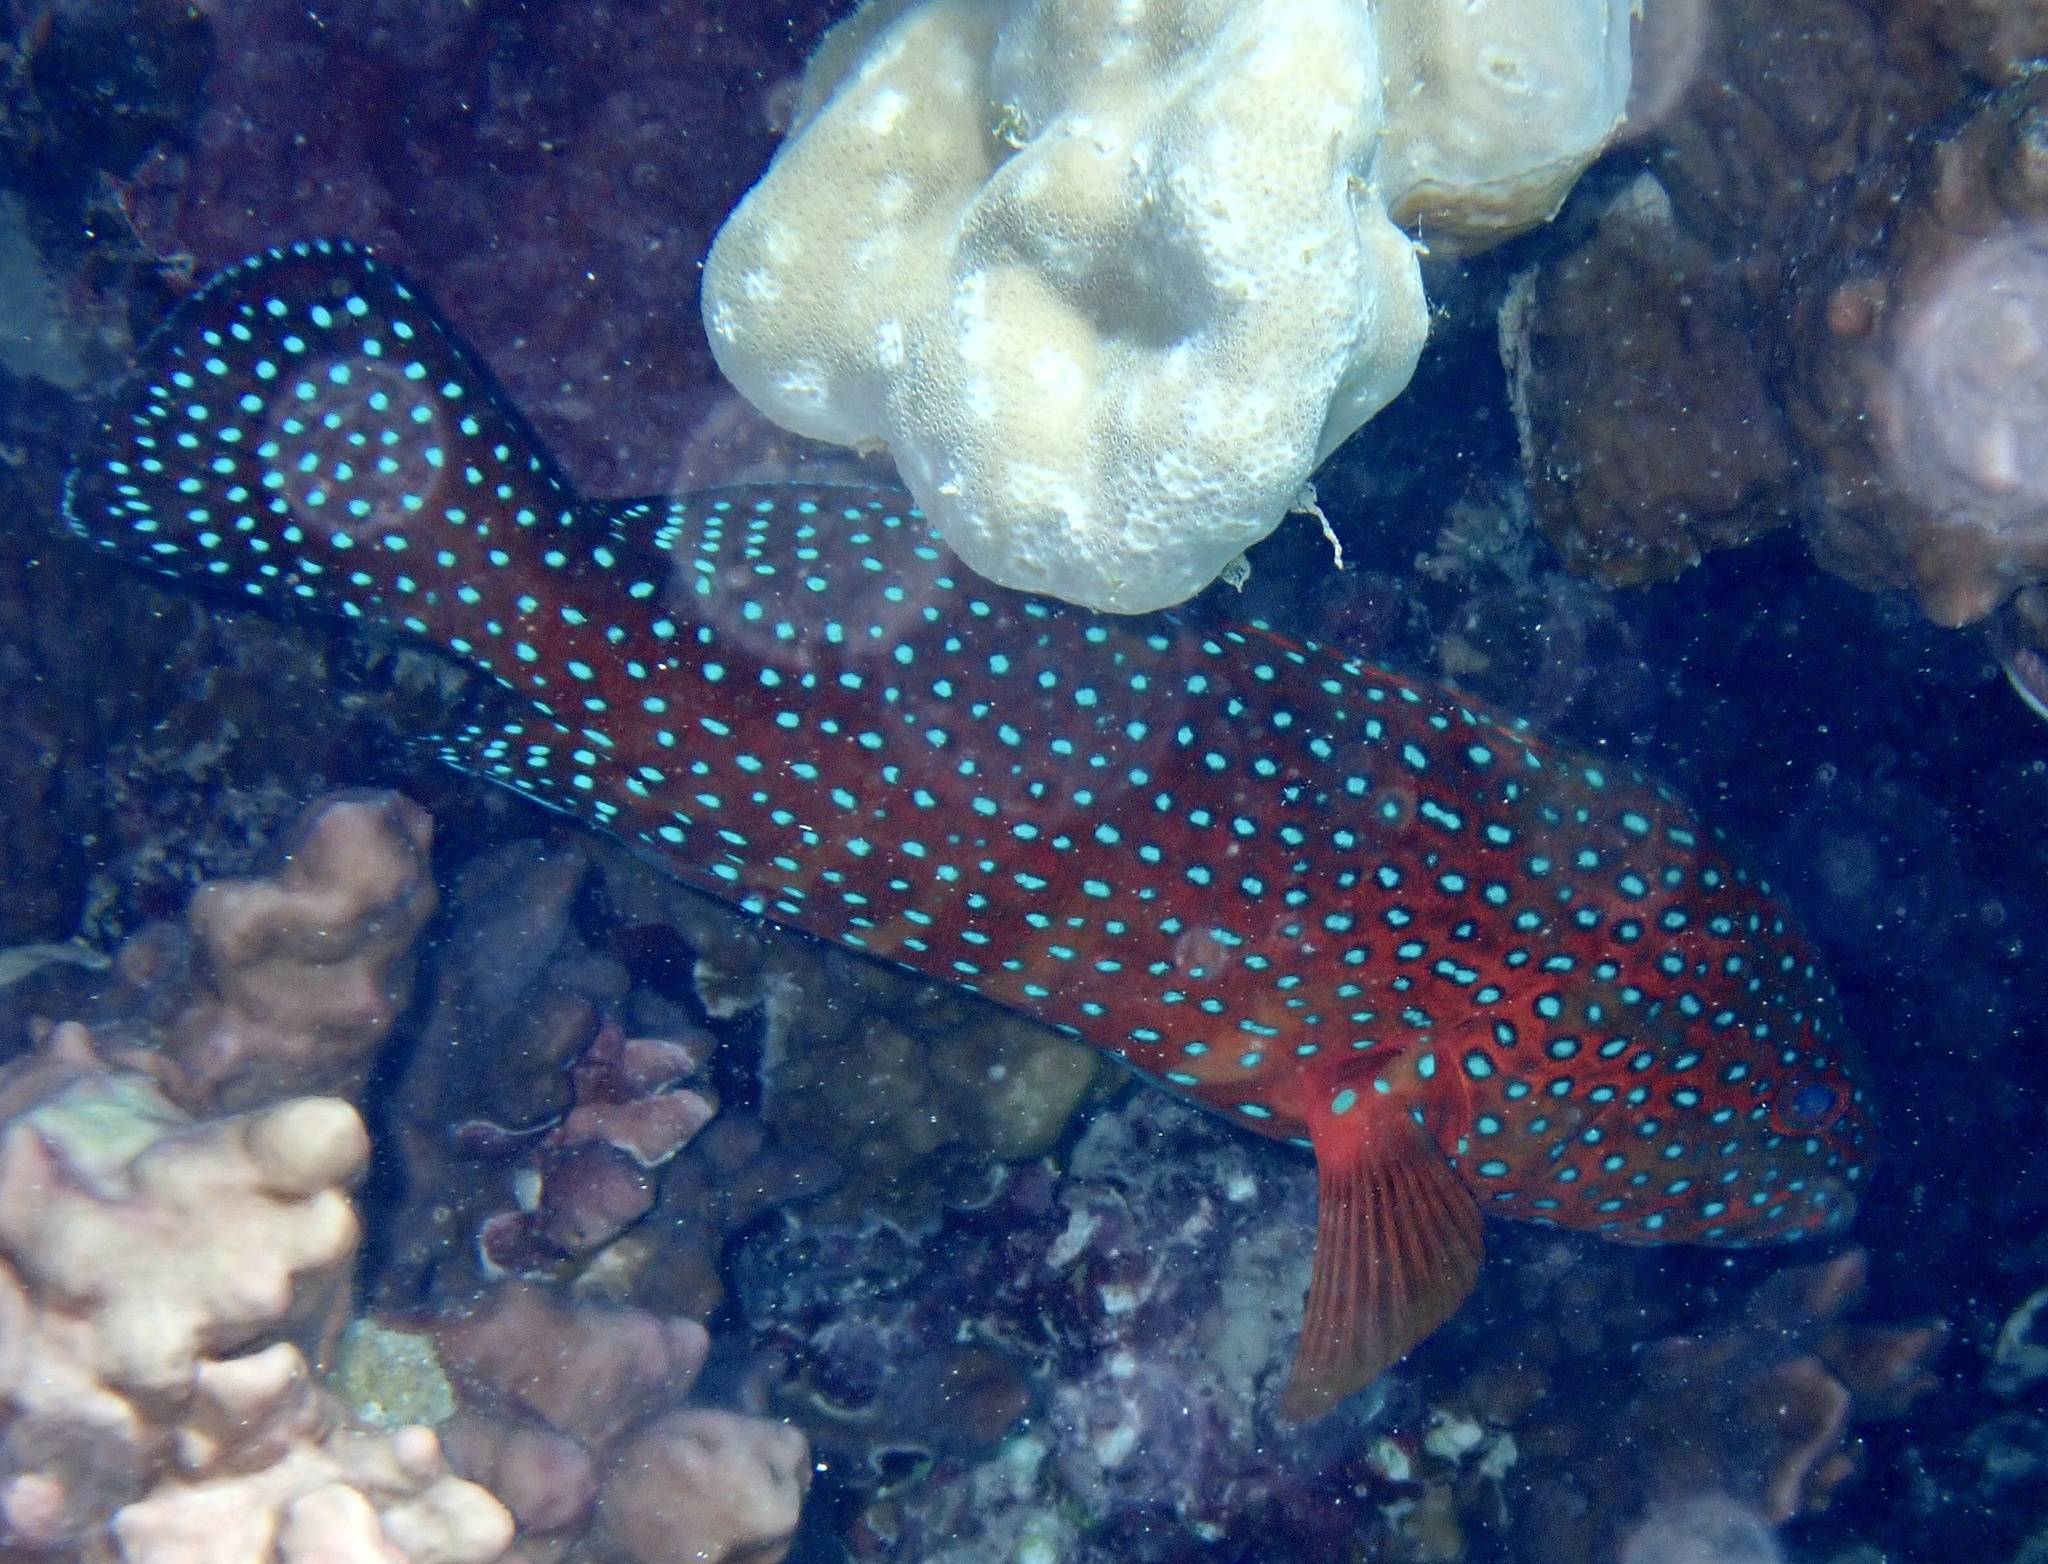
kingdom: Animalia
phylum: Chordata
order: Perciformes
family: Serranidae
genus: Cephalopholis
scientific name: Cephalopholis miniata
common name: Coral hind
